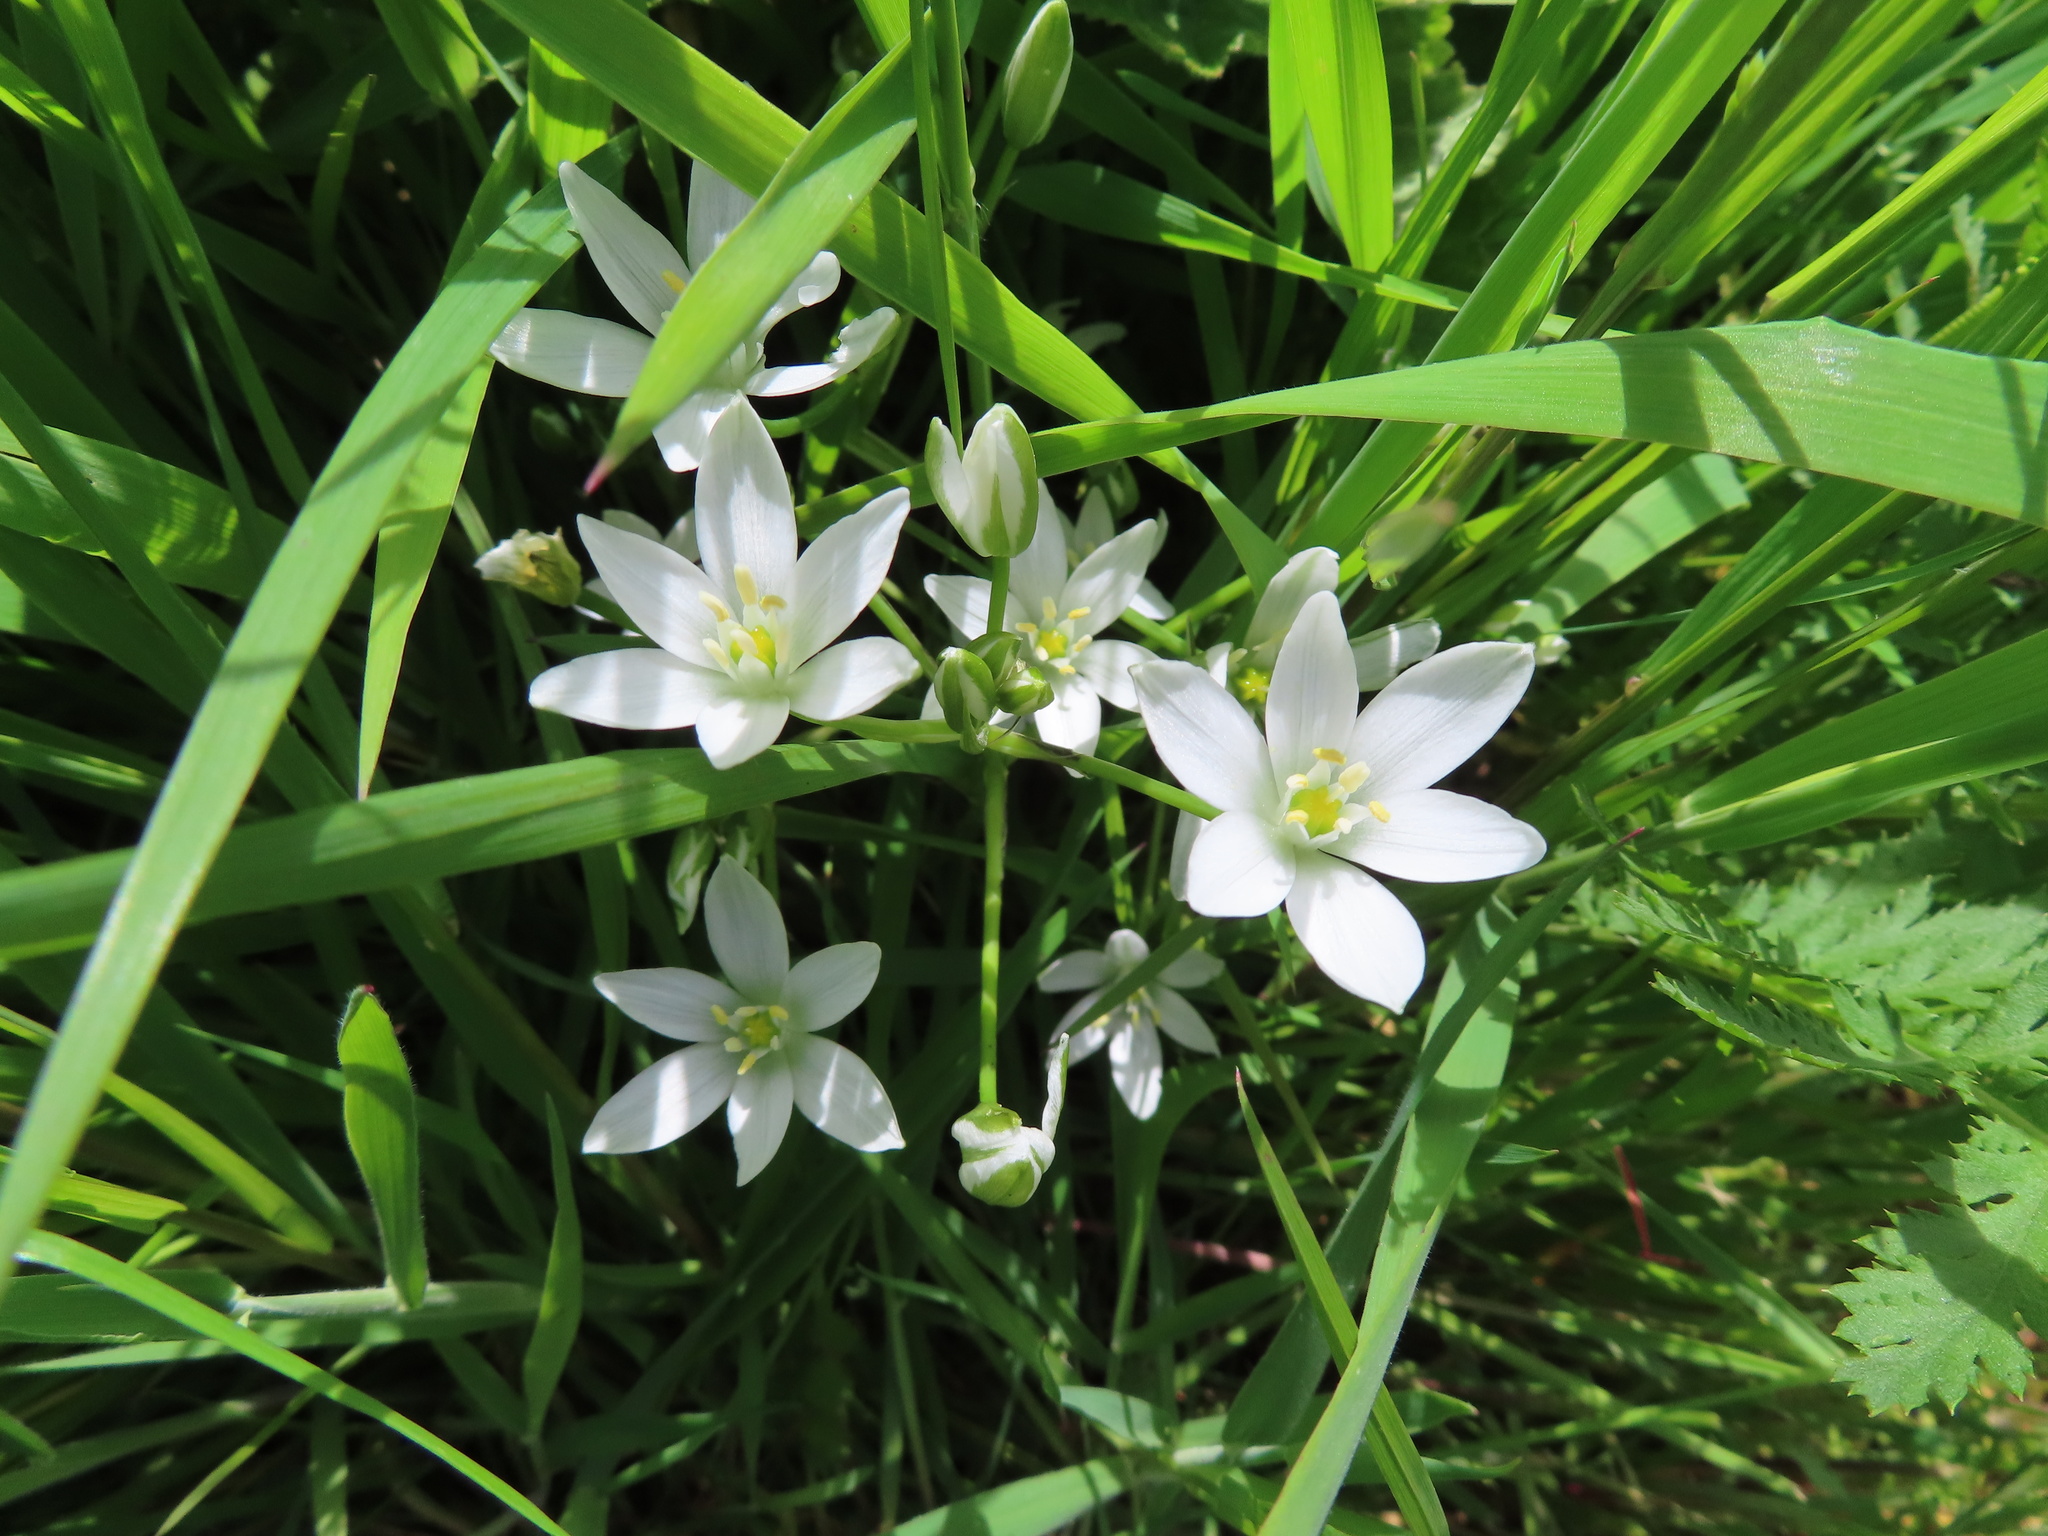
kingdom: Plantae
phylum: Tracheophyta
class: Liliopsida
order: Asparagales
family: Asparagaceae
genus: Ornithogalum
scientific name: Ornithogalum umbellatum
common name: Garden star-of-bethlehem
